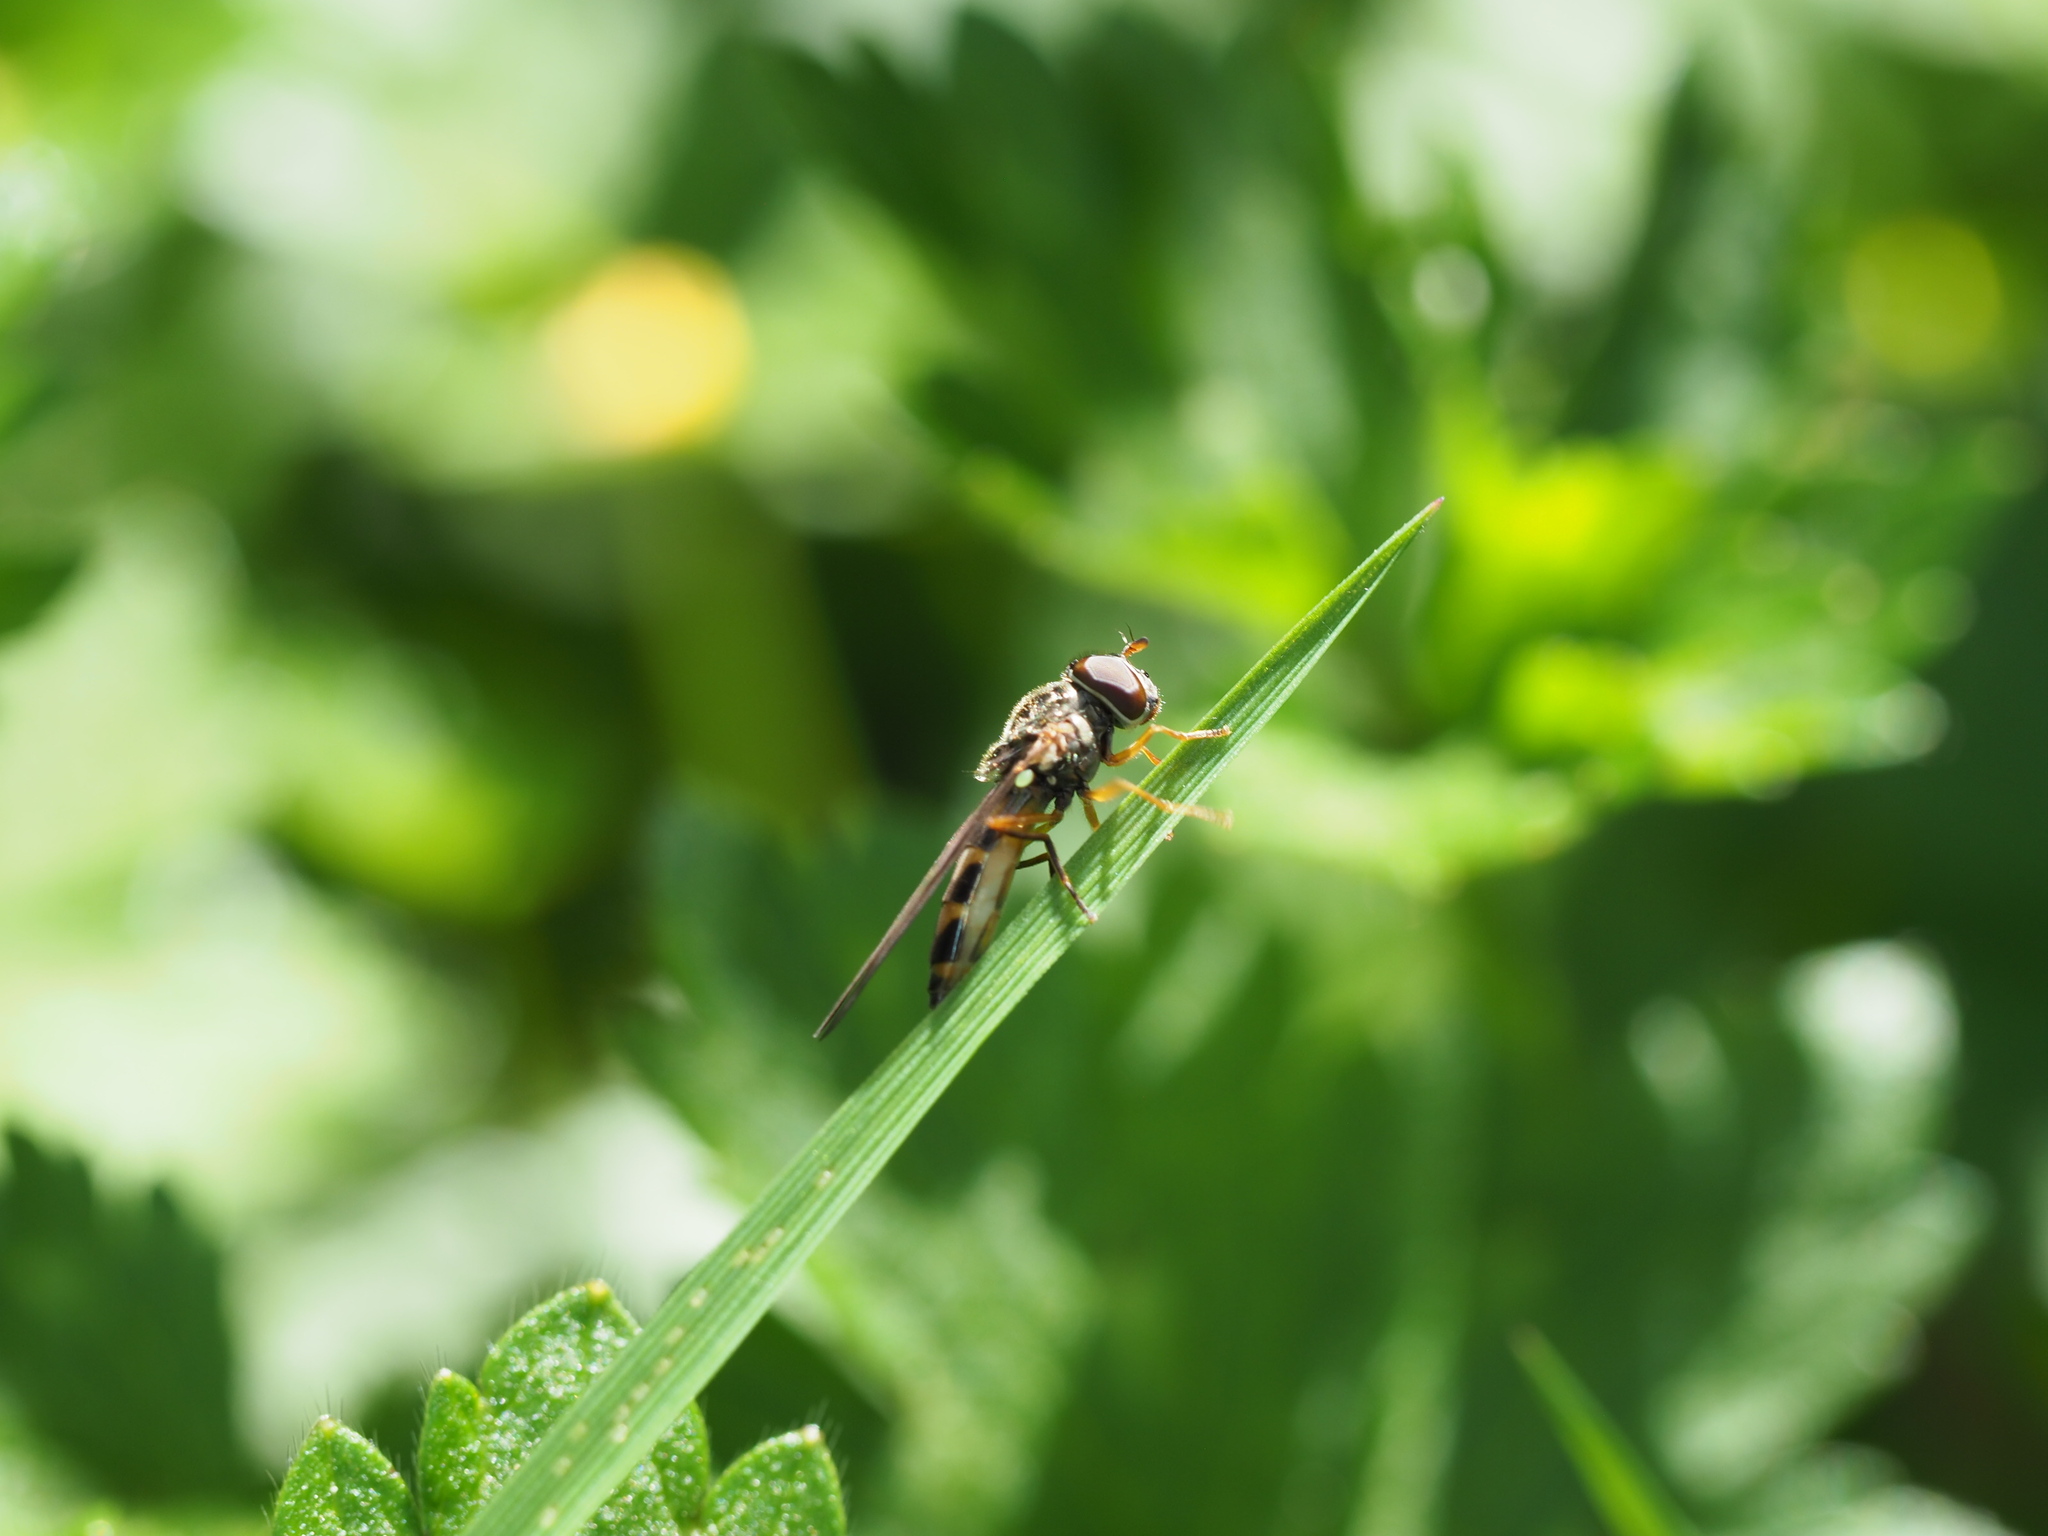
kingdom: Animalia
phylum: Arthropoda
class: Insecta
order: Diptera
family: Syrphidae
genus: Melanostoma
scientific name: Melanostoma mellina
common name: Hover fly
